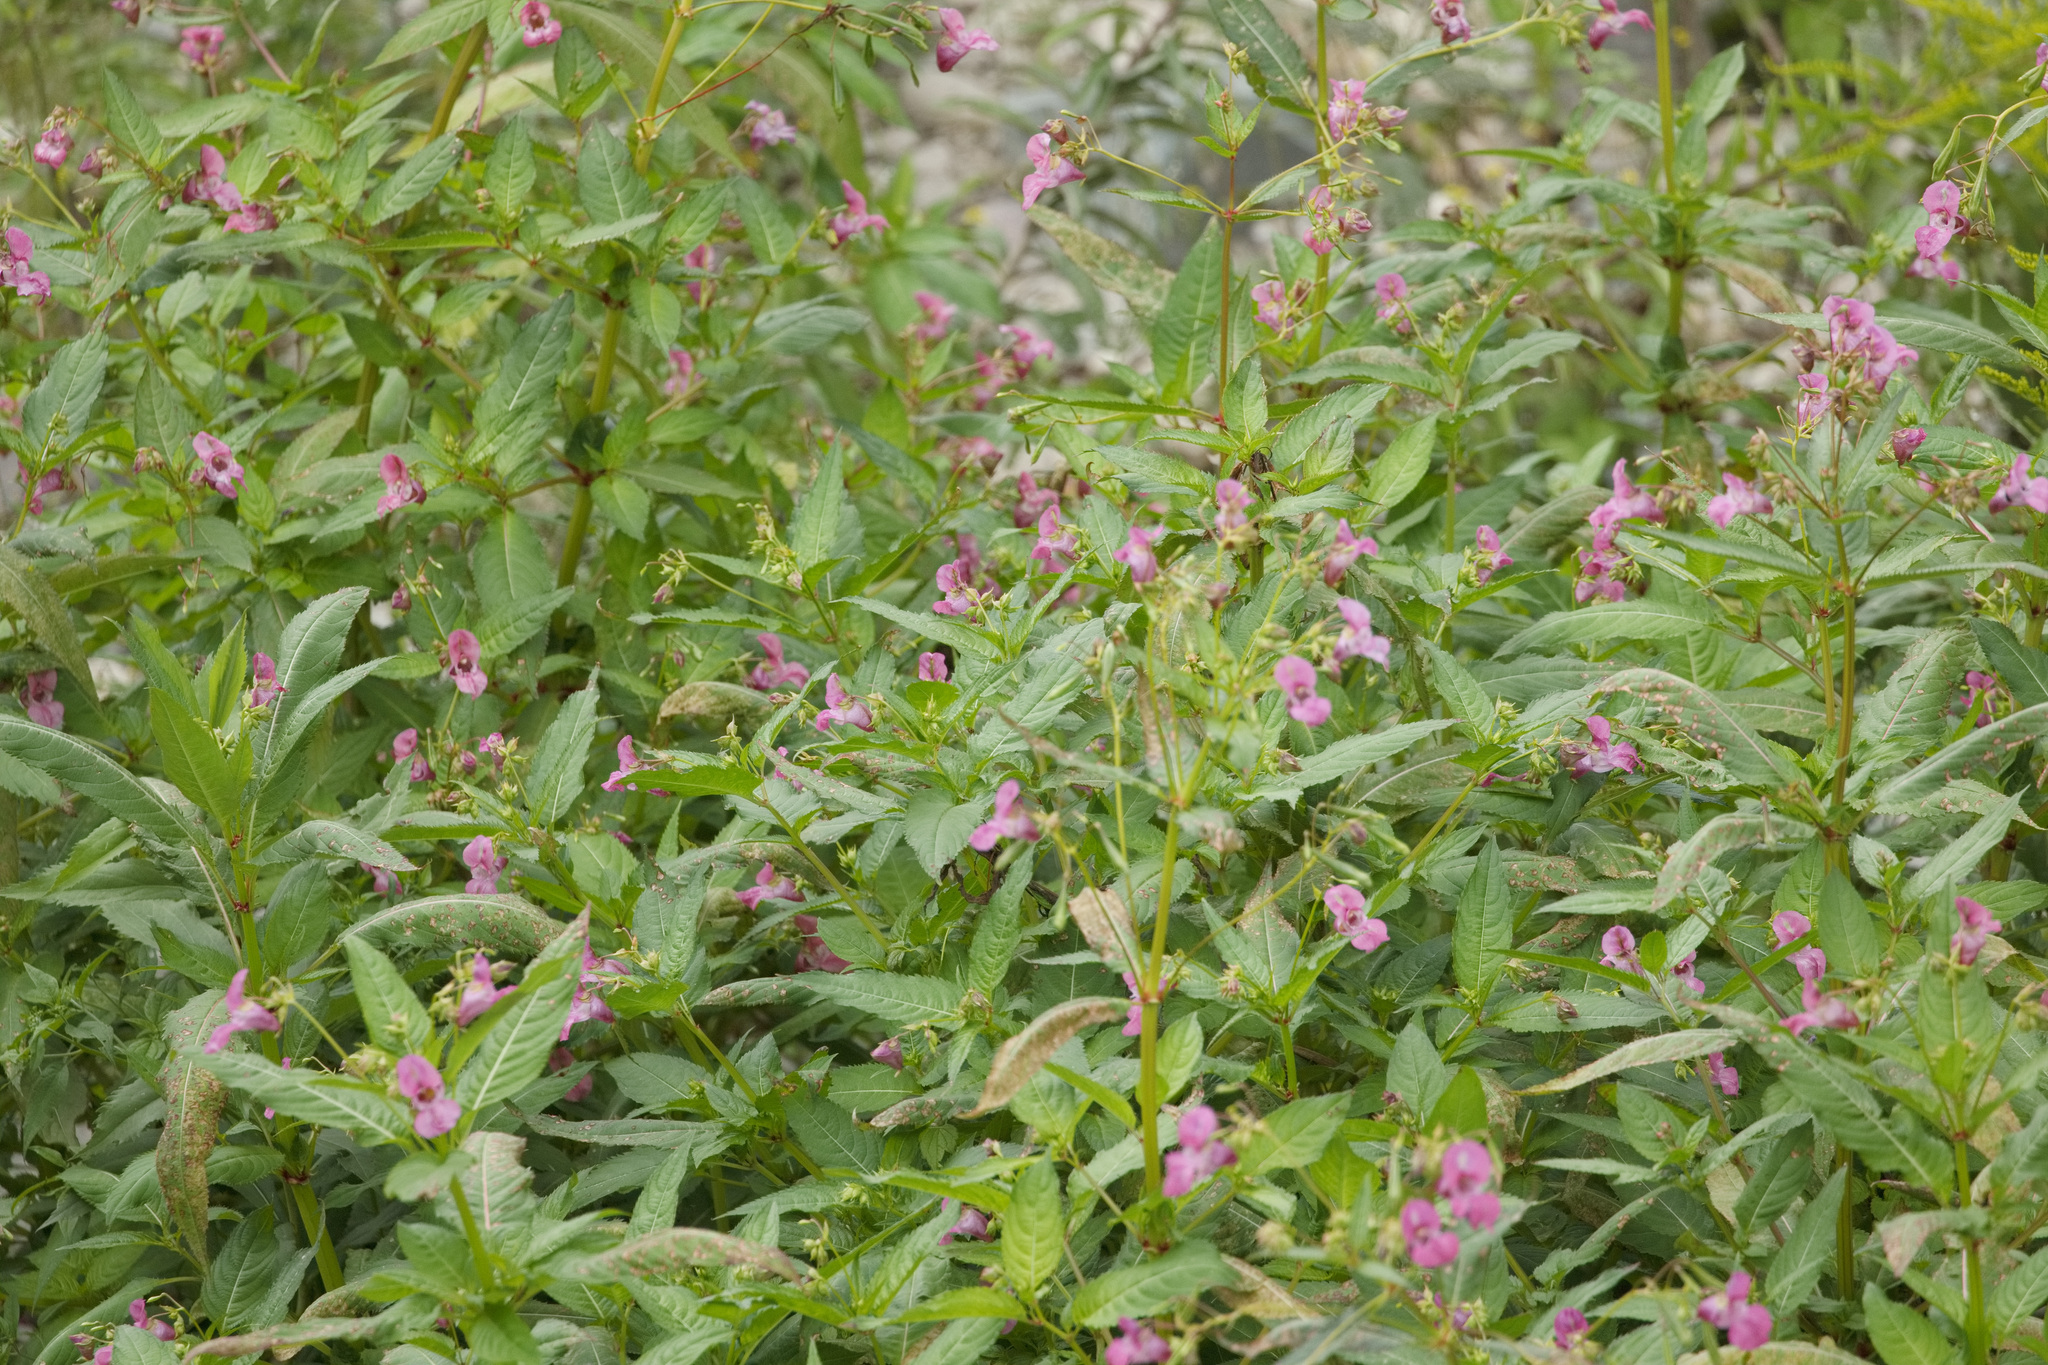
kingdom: Plantae
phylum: Tracheophyta
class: Magnoliopsida
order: Ericales
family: Balsaminaceae
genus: Impatiens
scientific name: Impatiens glandulifera
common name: Himalayan balsam
